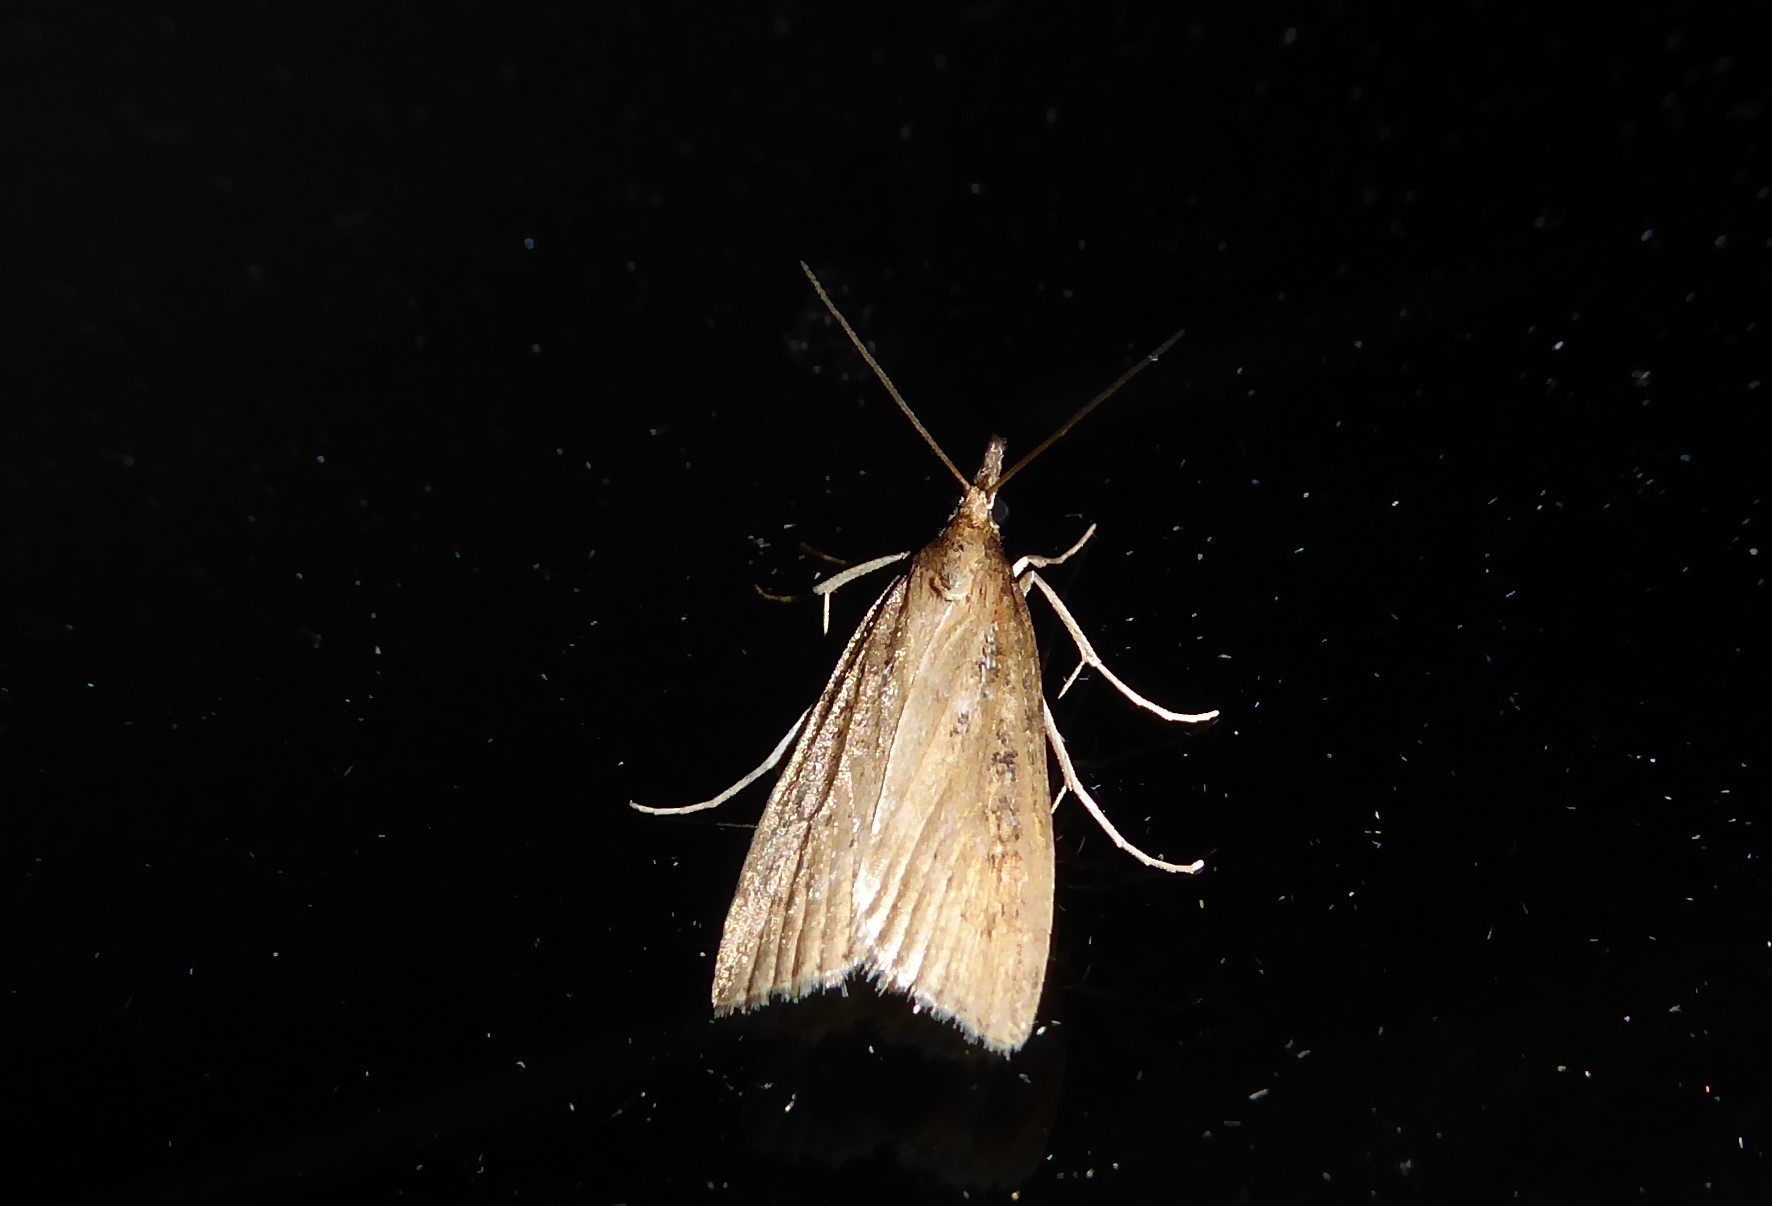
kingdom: Animalia
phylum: Arthropoda
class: Insecta
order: Lepidoptera
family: Crambidae
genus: Eudonia
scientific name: Eudonia octophora
